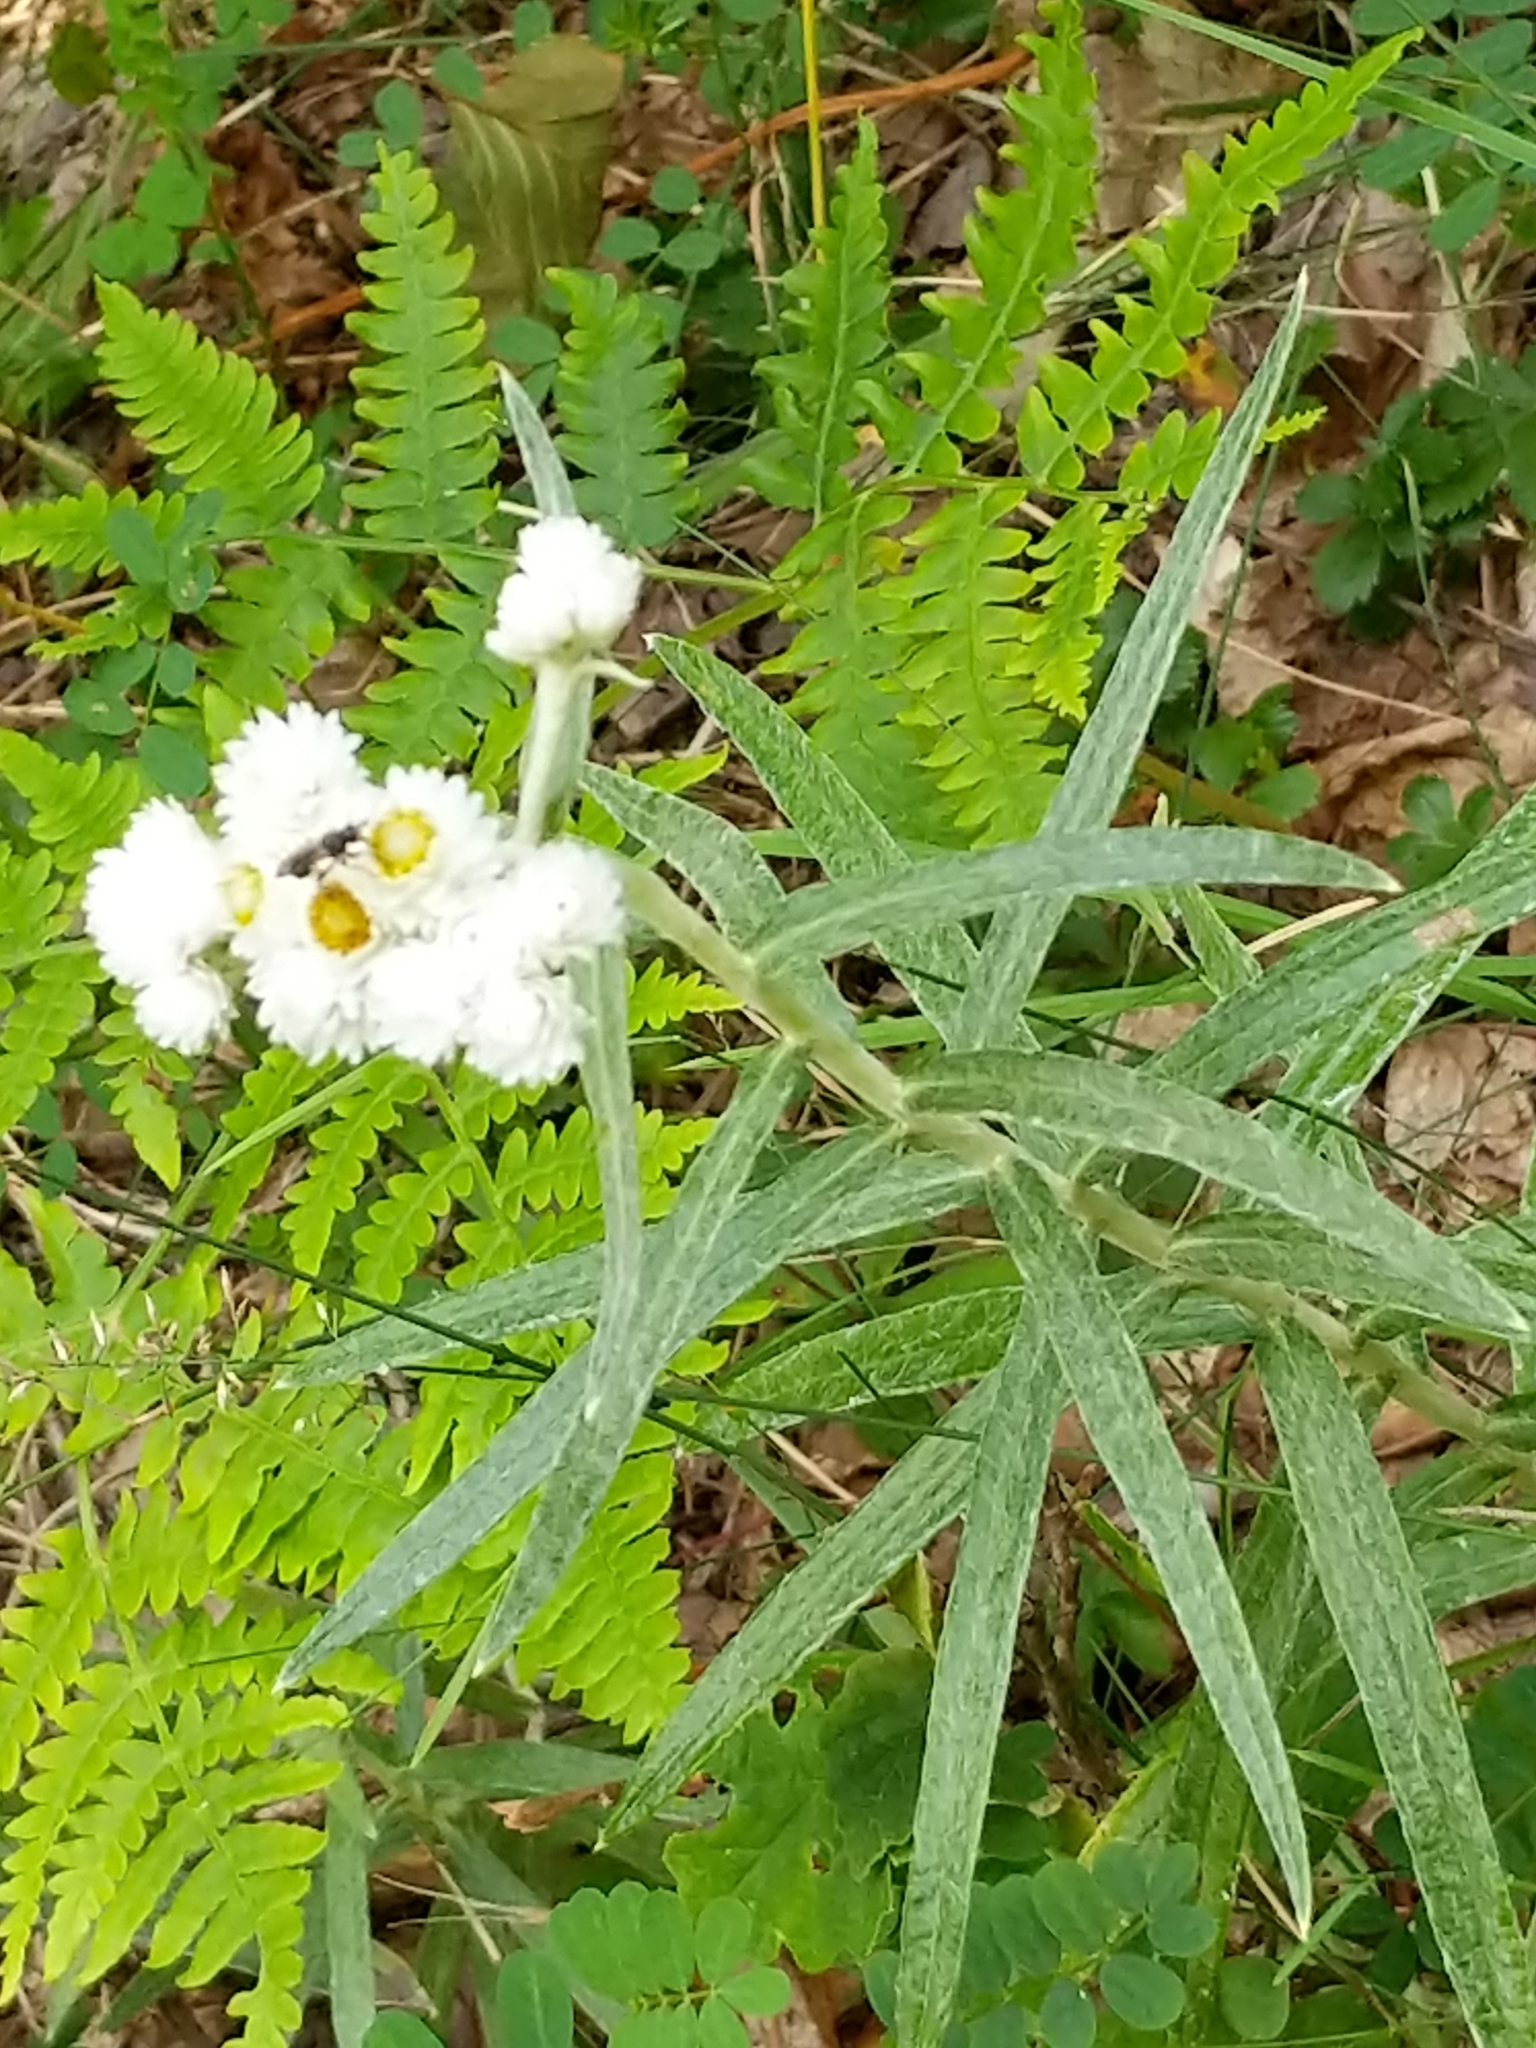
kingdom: Plantae
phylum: Tracheophyta
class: Magnoliopsida
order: Asterales
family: Asteraceae
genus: Anaphalis
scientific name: Anaphalis margaritacea
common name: Pearly everlasting
